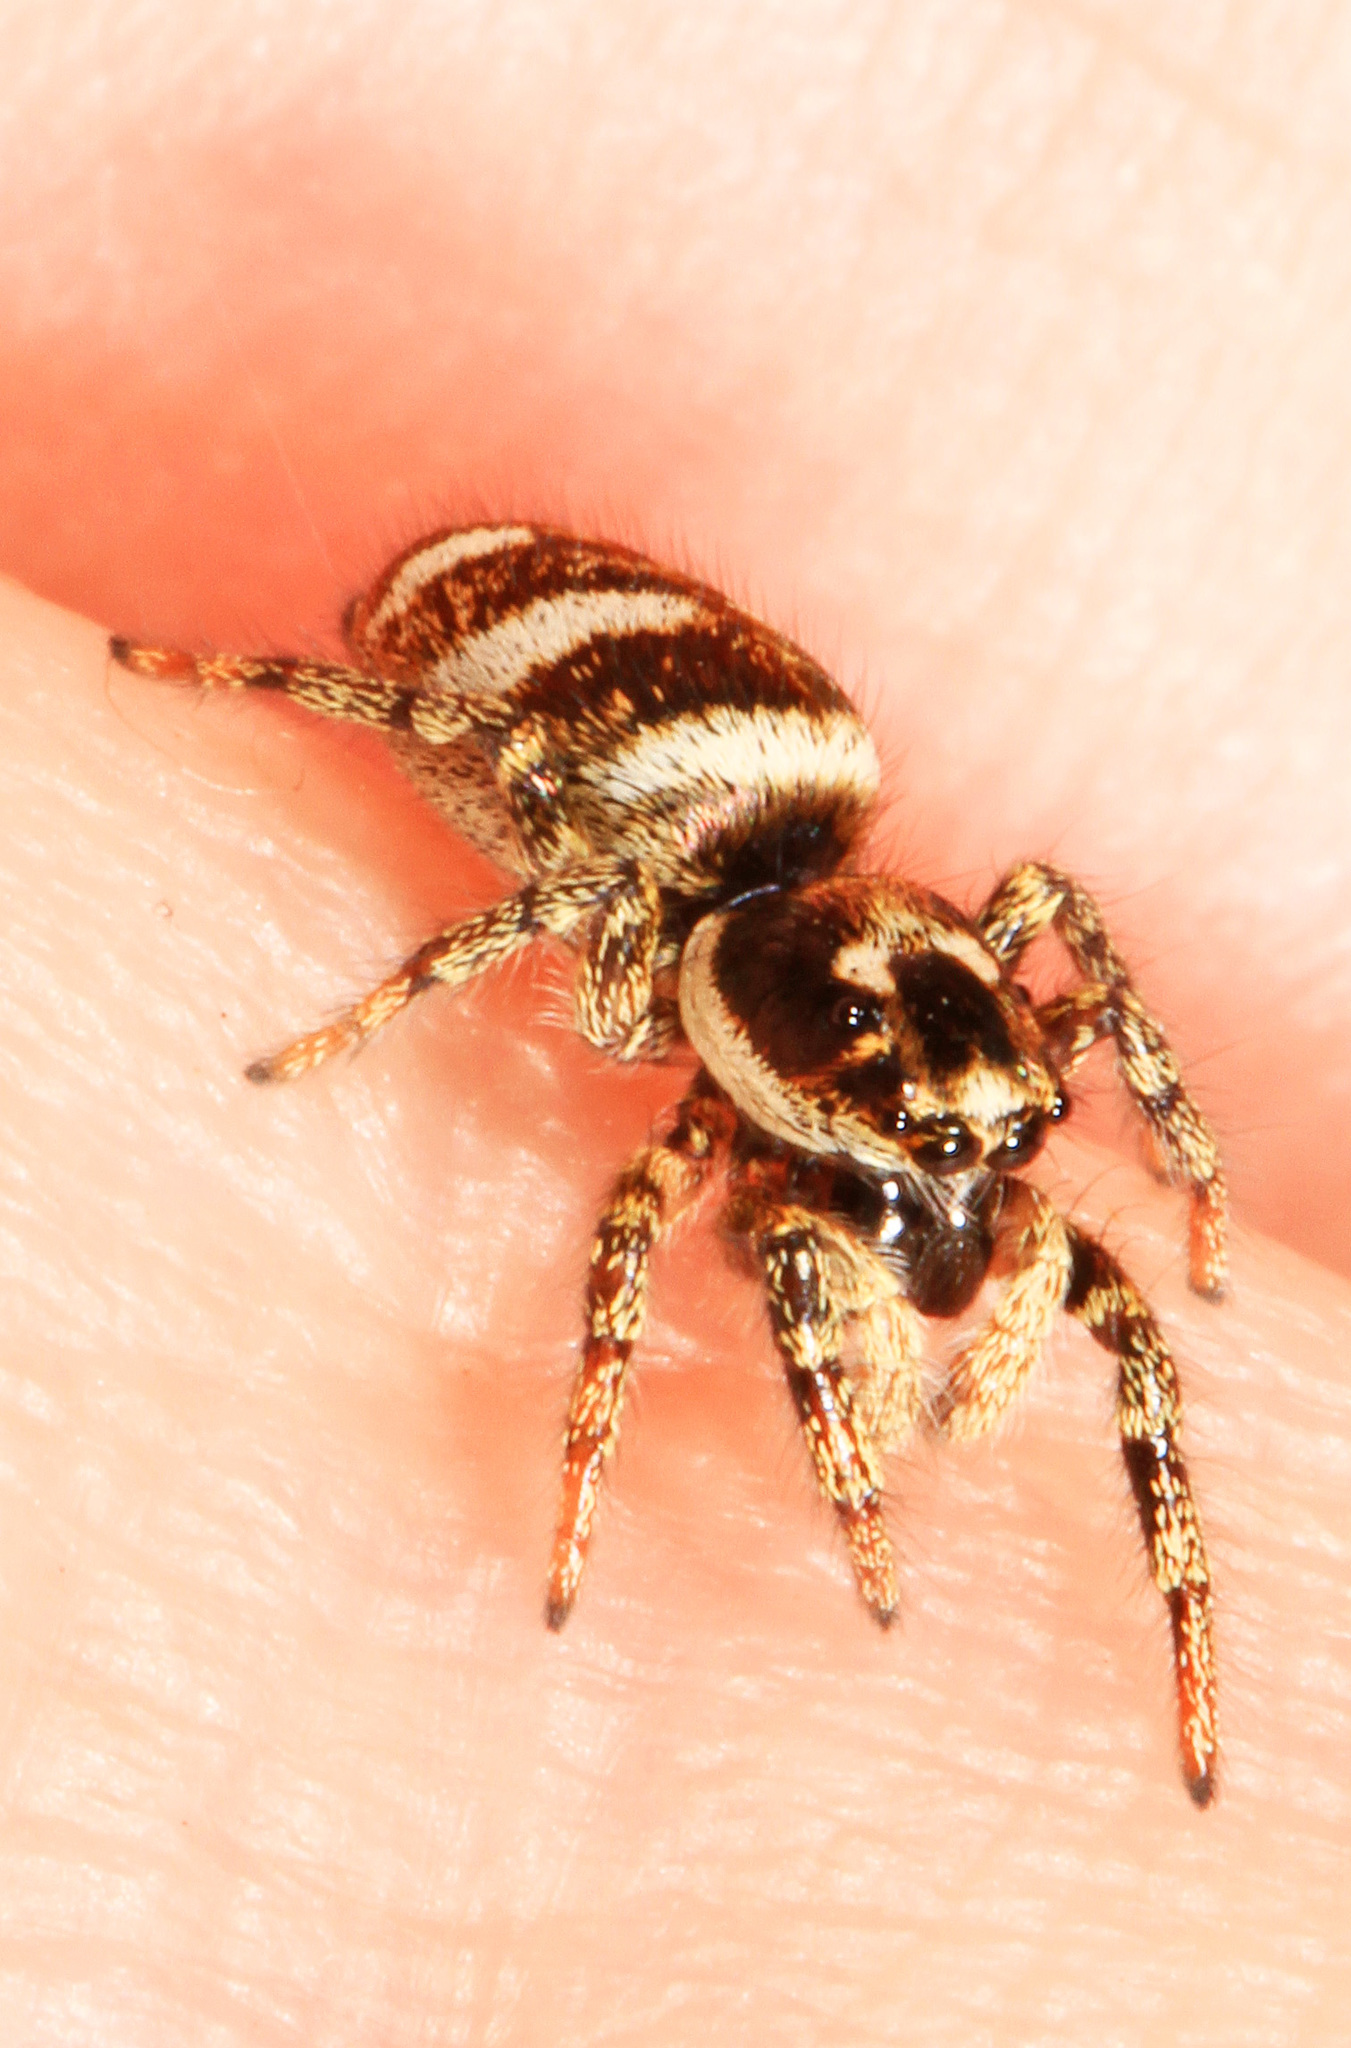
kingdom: Animalia
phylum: Arthropoda
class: Arachnida
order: Araneae
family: Salticidae
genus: Salticus
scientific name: Salticus scenicus
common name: Zebra jumper
